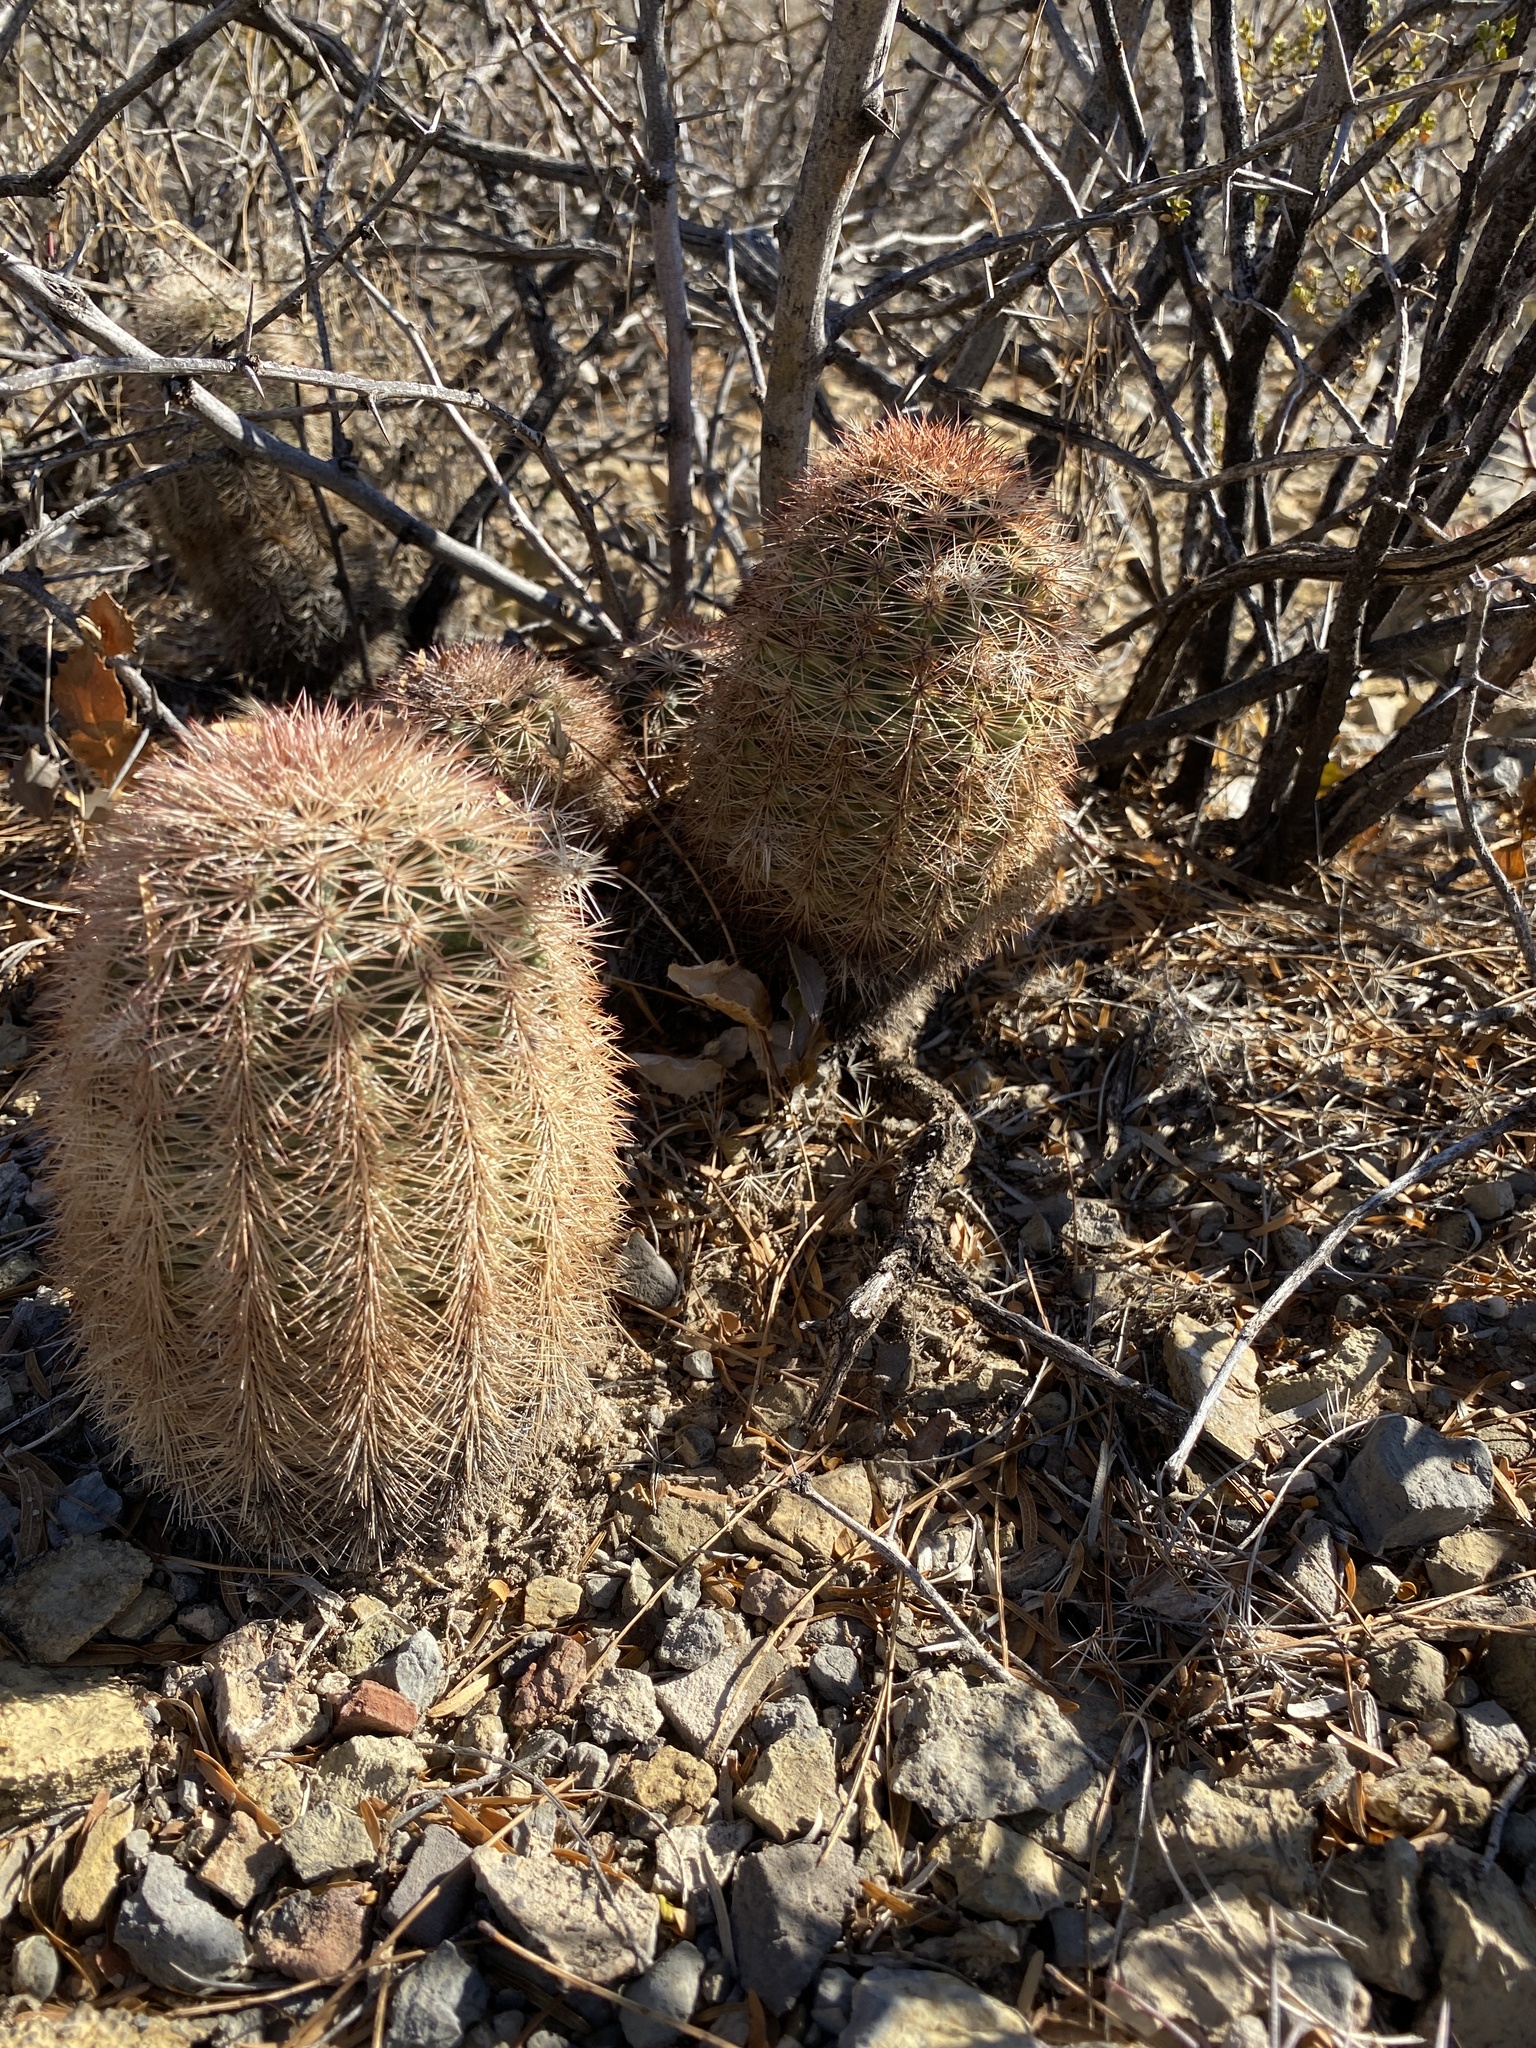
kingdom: Plantae
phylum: Tracheophyta
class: Magnoliopsida
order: Caryophyllales
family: Cactaceae
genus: Echinocereus
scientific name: Echinocereus dasyacanthus
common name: Spiny hedgehog cactus
